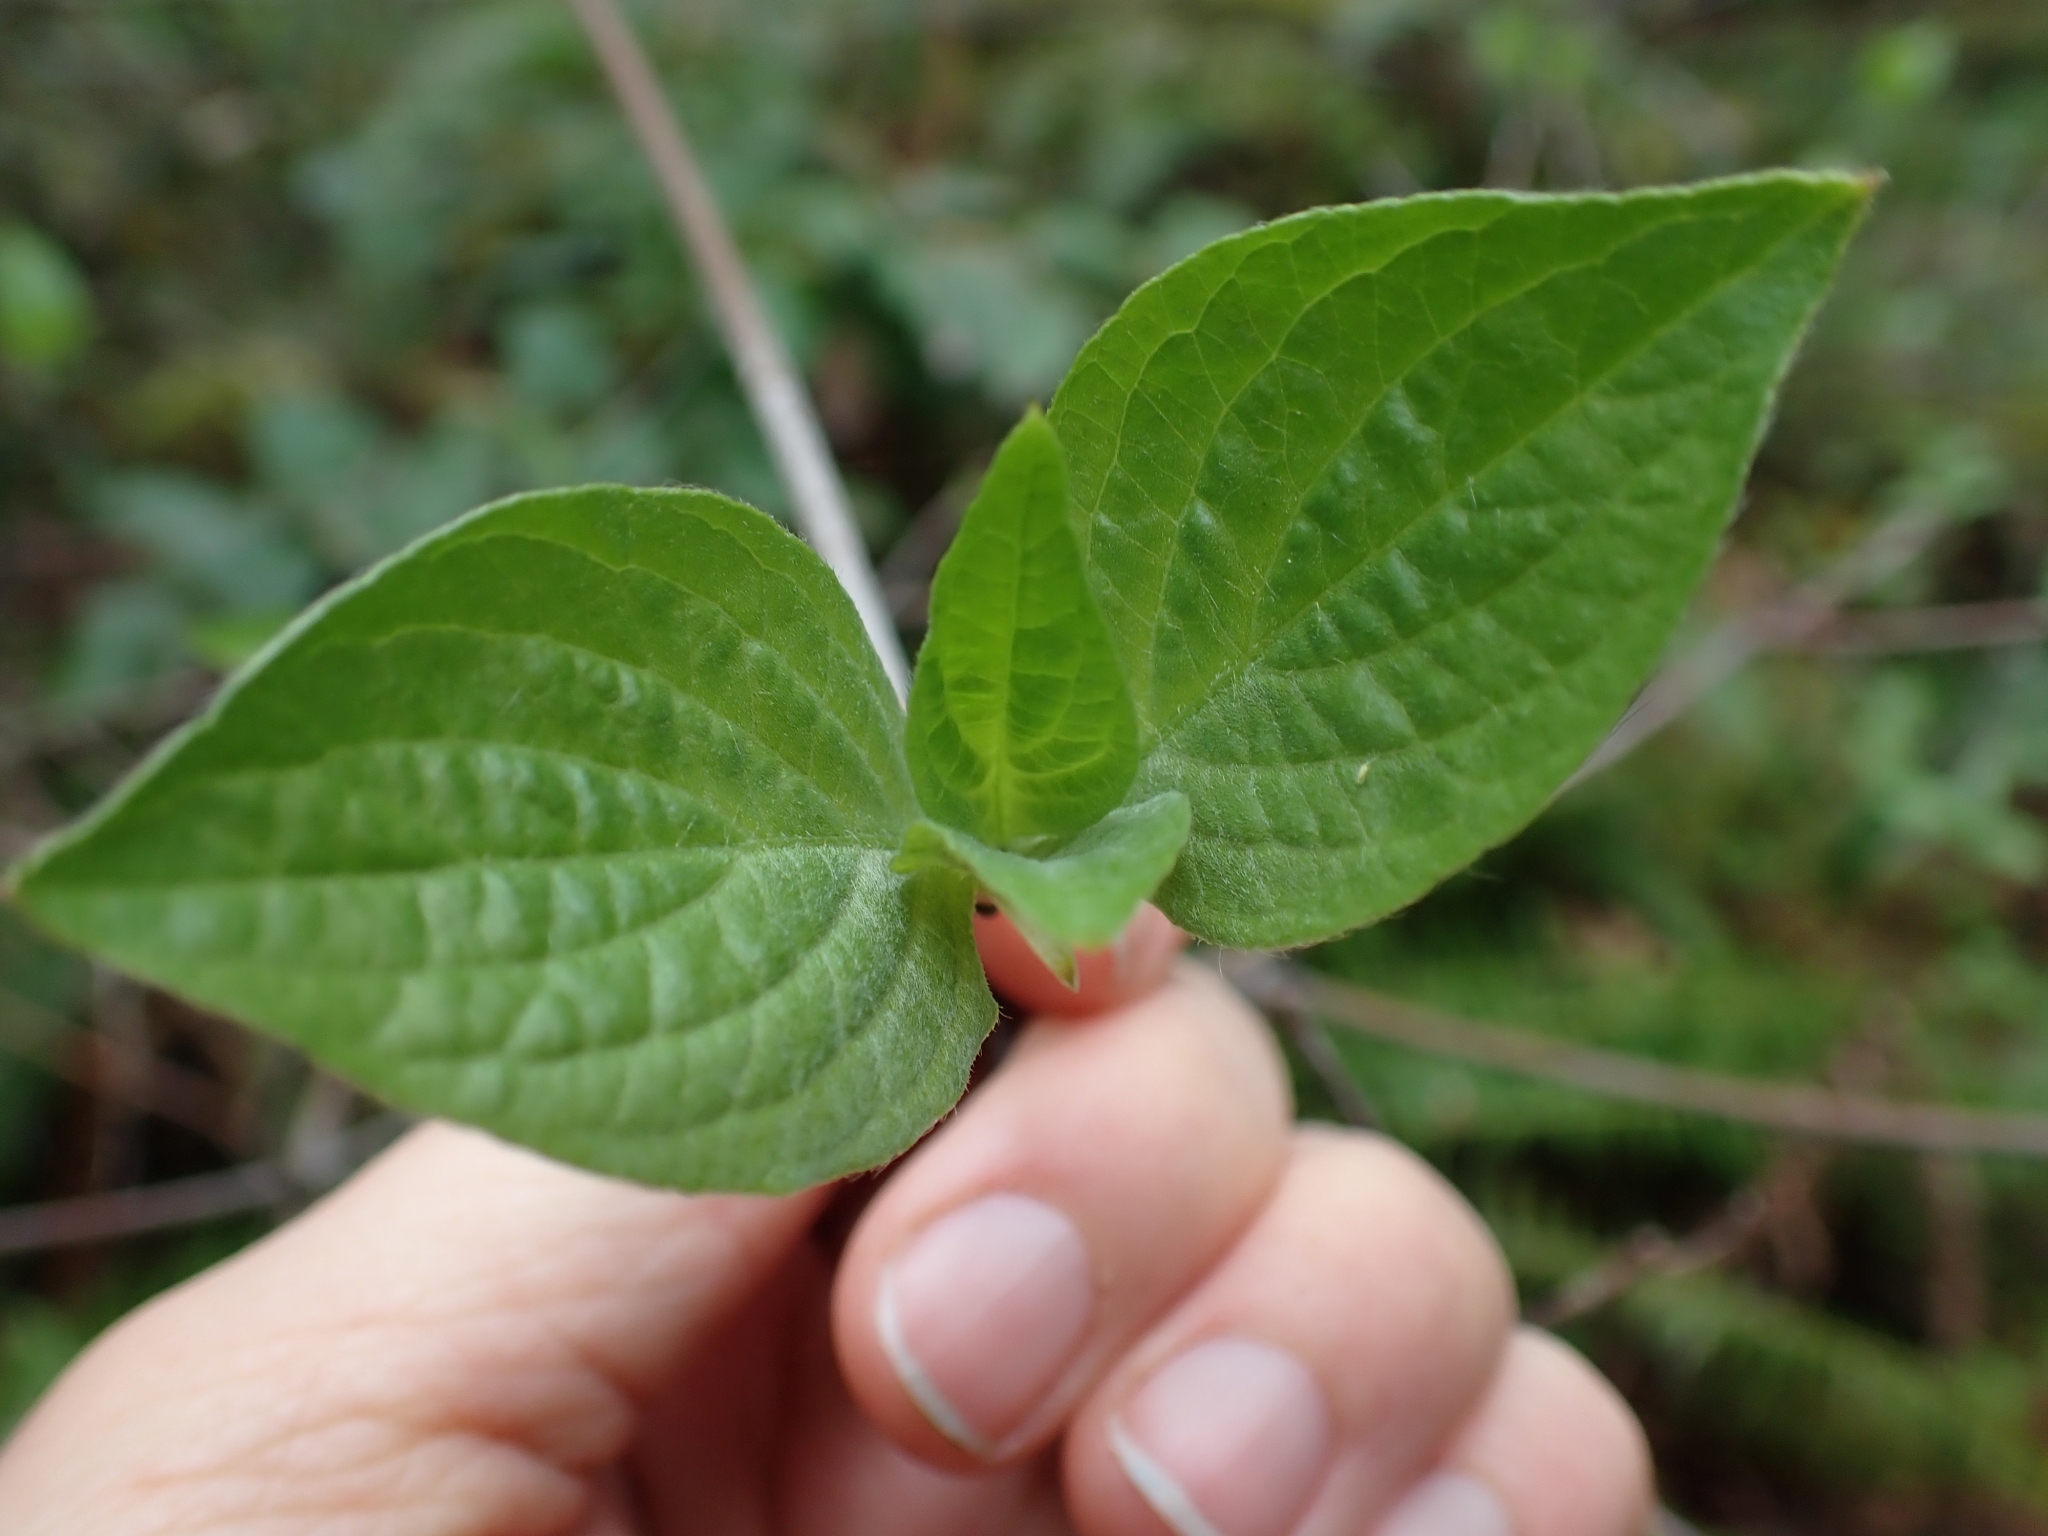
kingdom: Plantae
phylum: Tracheophyta
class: Magnoliopsida
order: Cornales
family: Cornaceae
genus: Cornus
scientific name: Cornus sericea
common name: Red-osier dogwood
